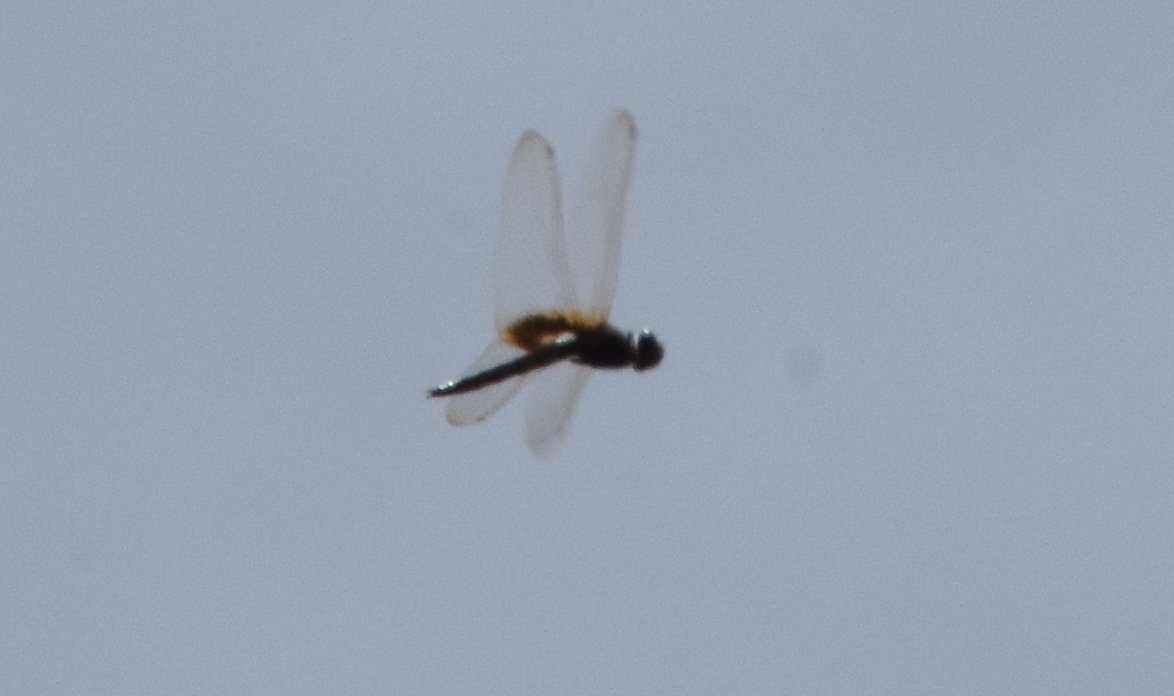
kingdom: Animalia
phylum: Arthropoda
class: Insecta
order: Odonata
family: Libellulidae
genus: Miathyria
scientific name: Miathyria marcella
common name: Hyacinth glider
